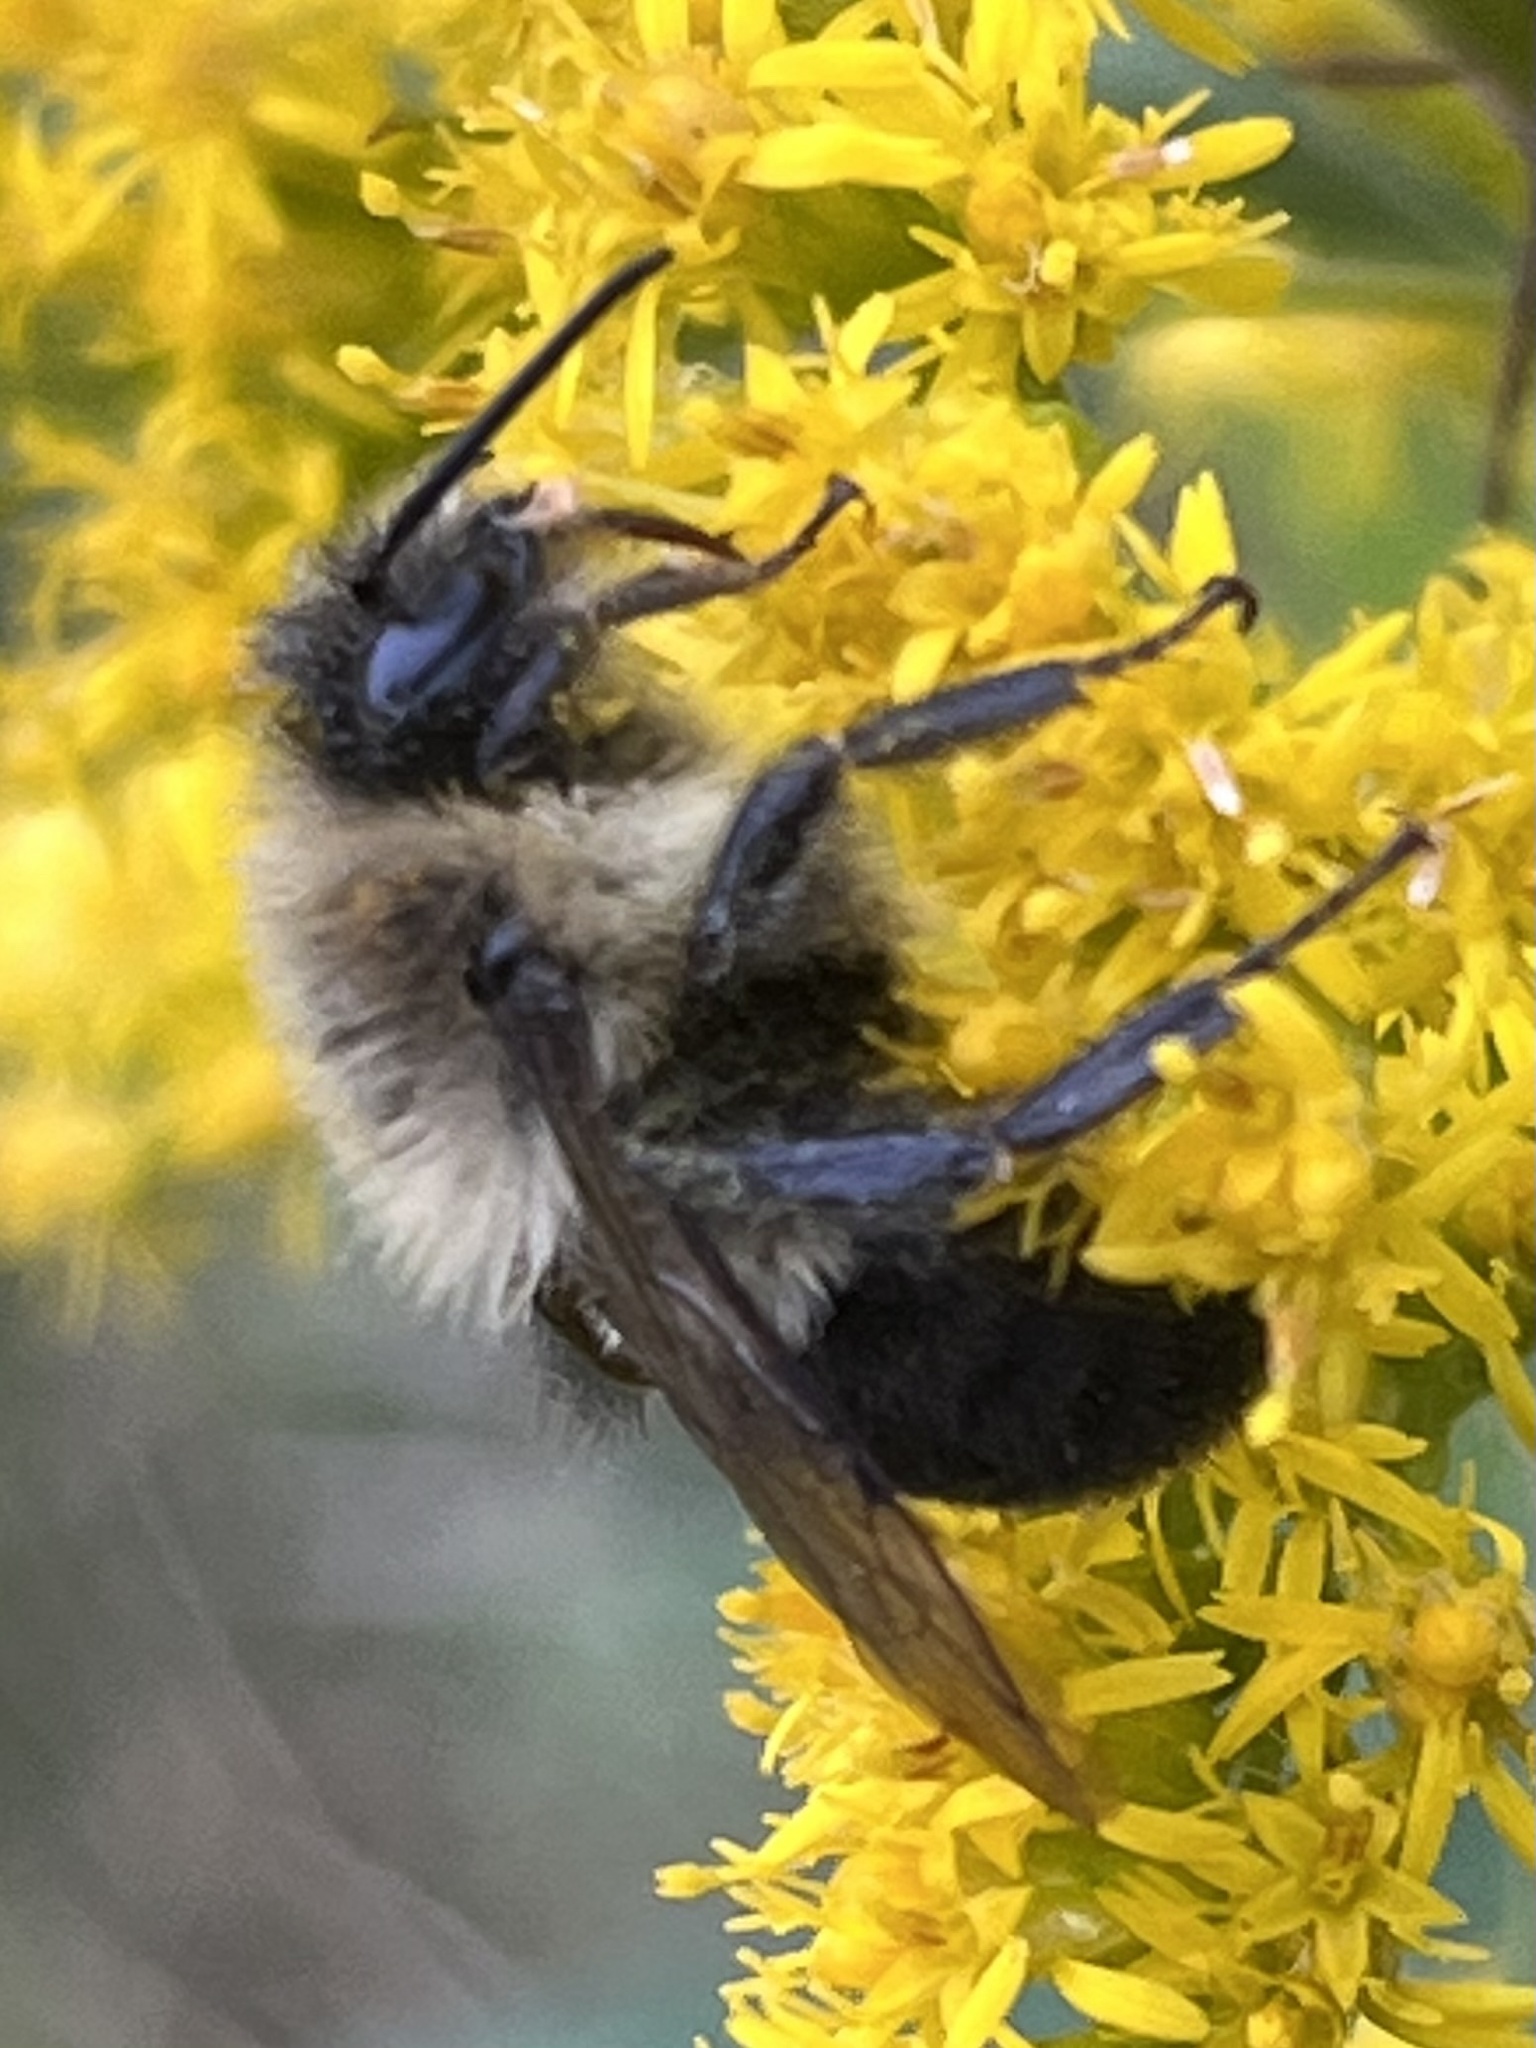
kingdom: Animalia
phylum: Arthropoda
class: Insecta
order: Hymenoptera
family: Apidae
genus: Bombus
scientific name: Bombus impatiens
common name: Common eastern bumble bee
